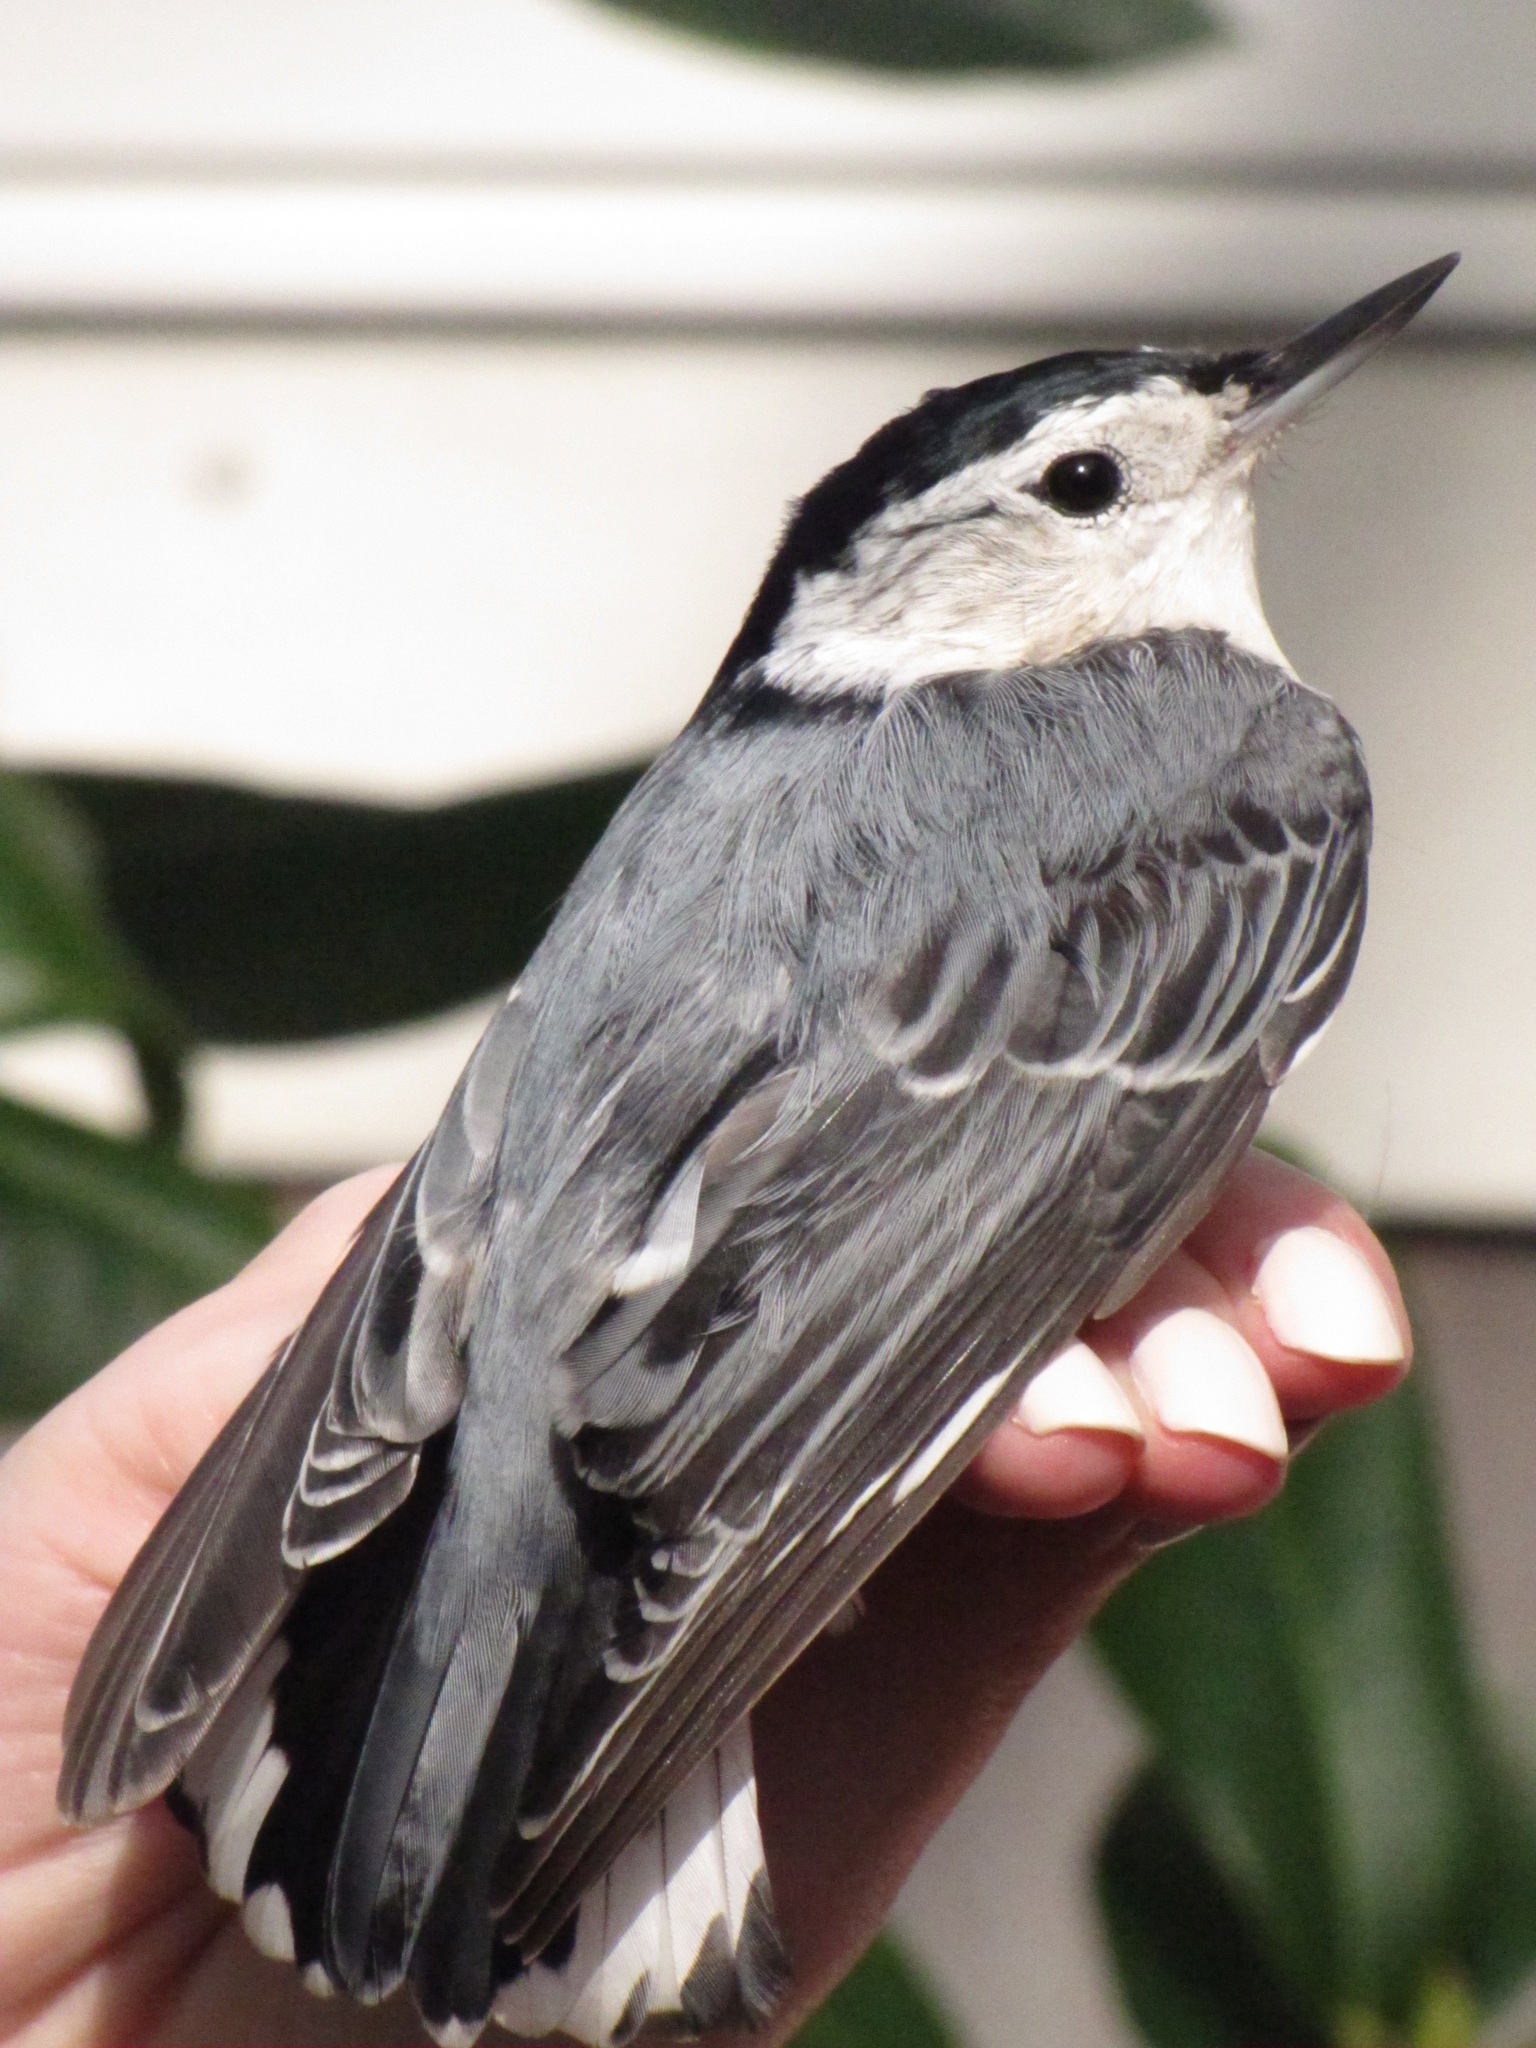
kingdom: Animalia
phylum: Chordata
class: Aves
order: Passeriformes
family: Sittidae
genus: Sitta
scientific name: Sitta carolinensis
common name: White-breasted nuthatch
